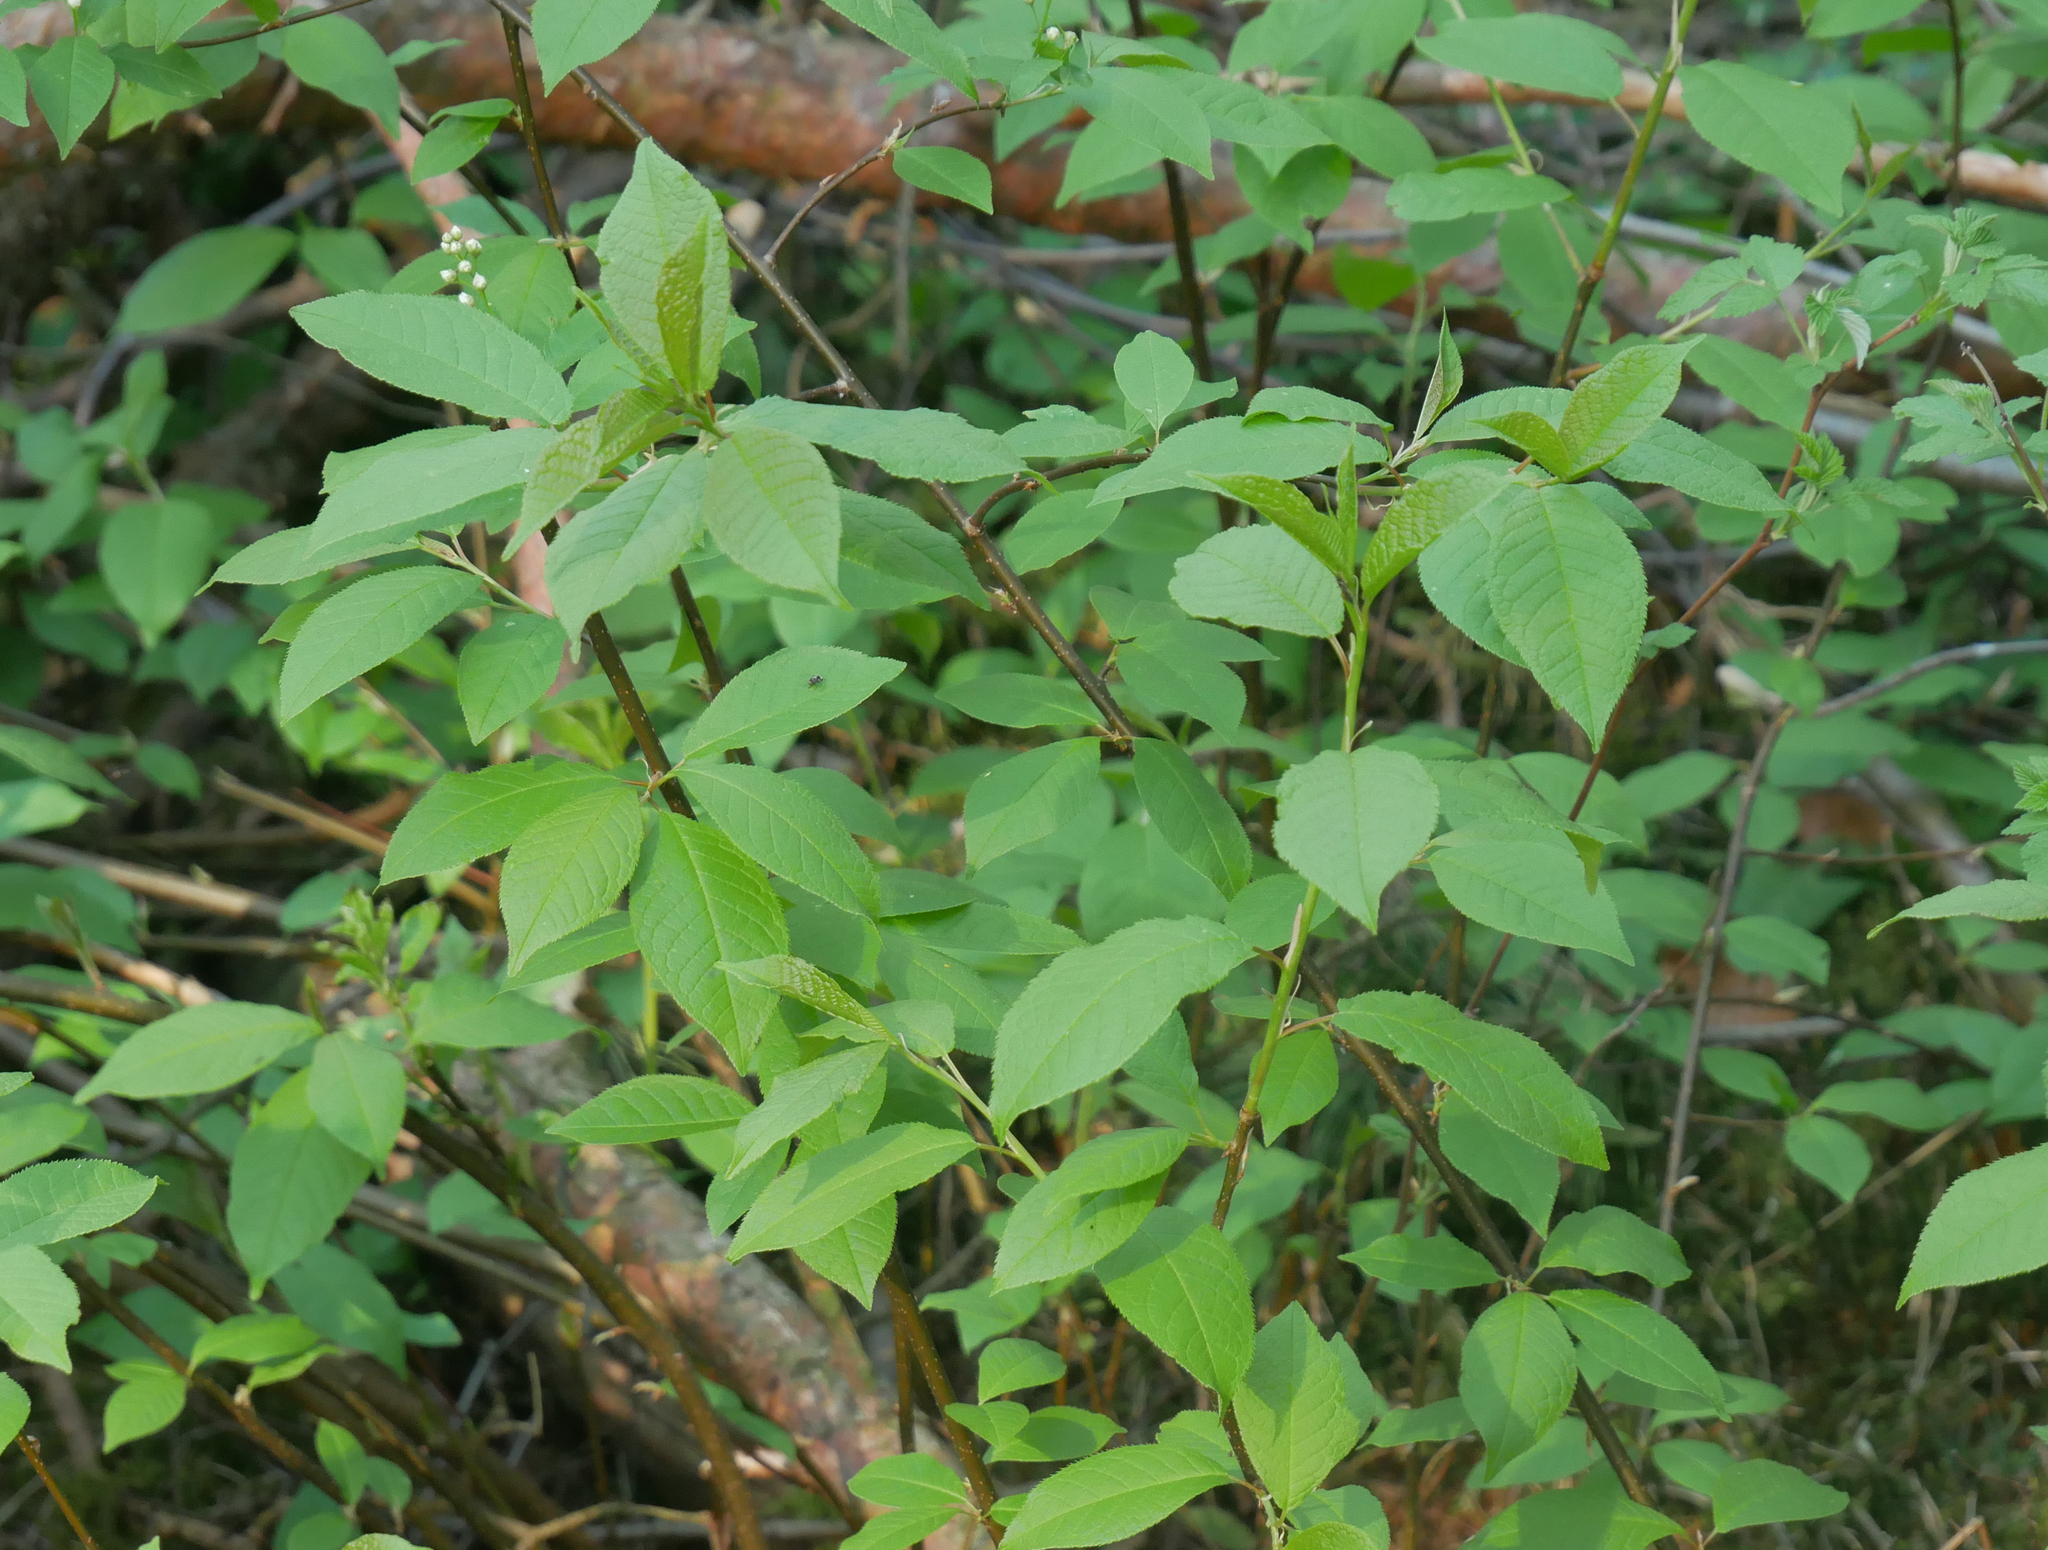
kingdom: Plantae
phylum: Tracheophyta
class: Magnoliopsida
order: Rosales
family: Rosaceae
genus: Prunus
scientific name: Prunus padus
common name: Bird cherry
